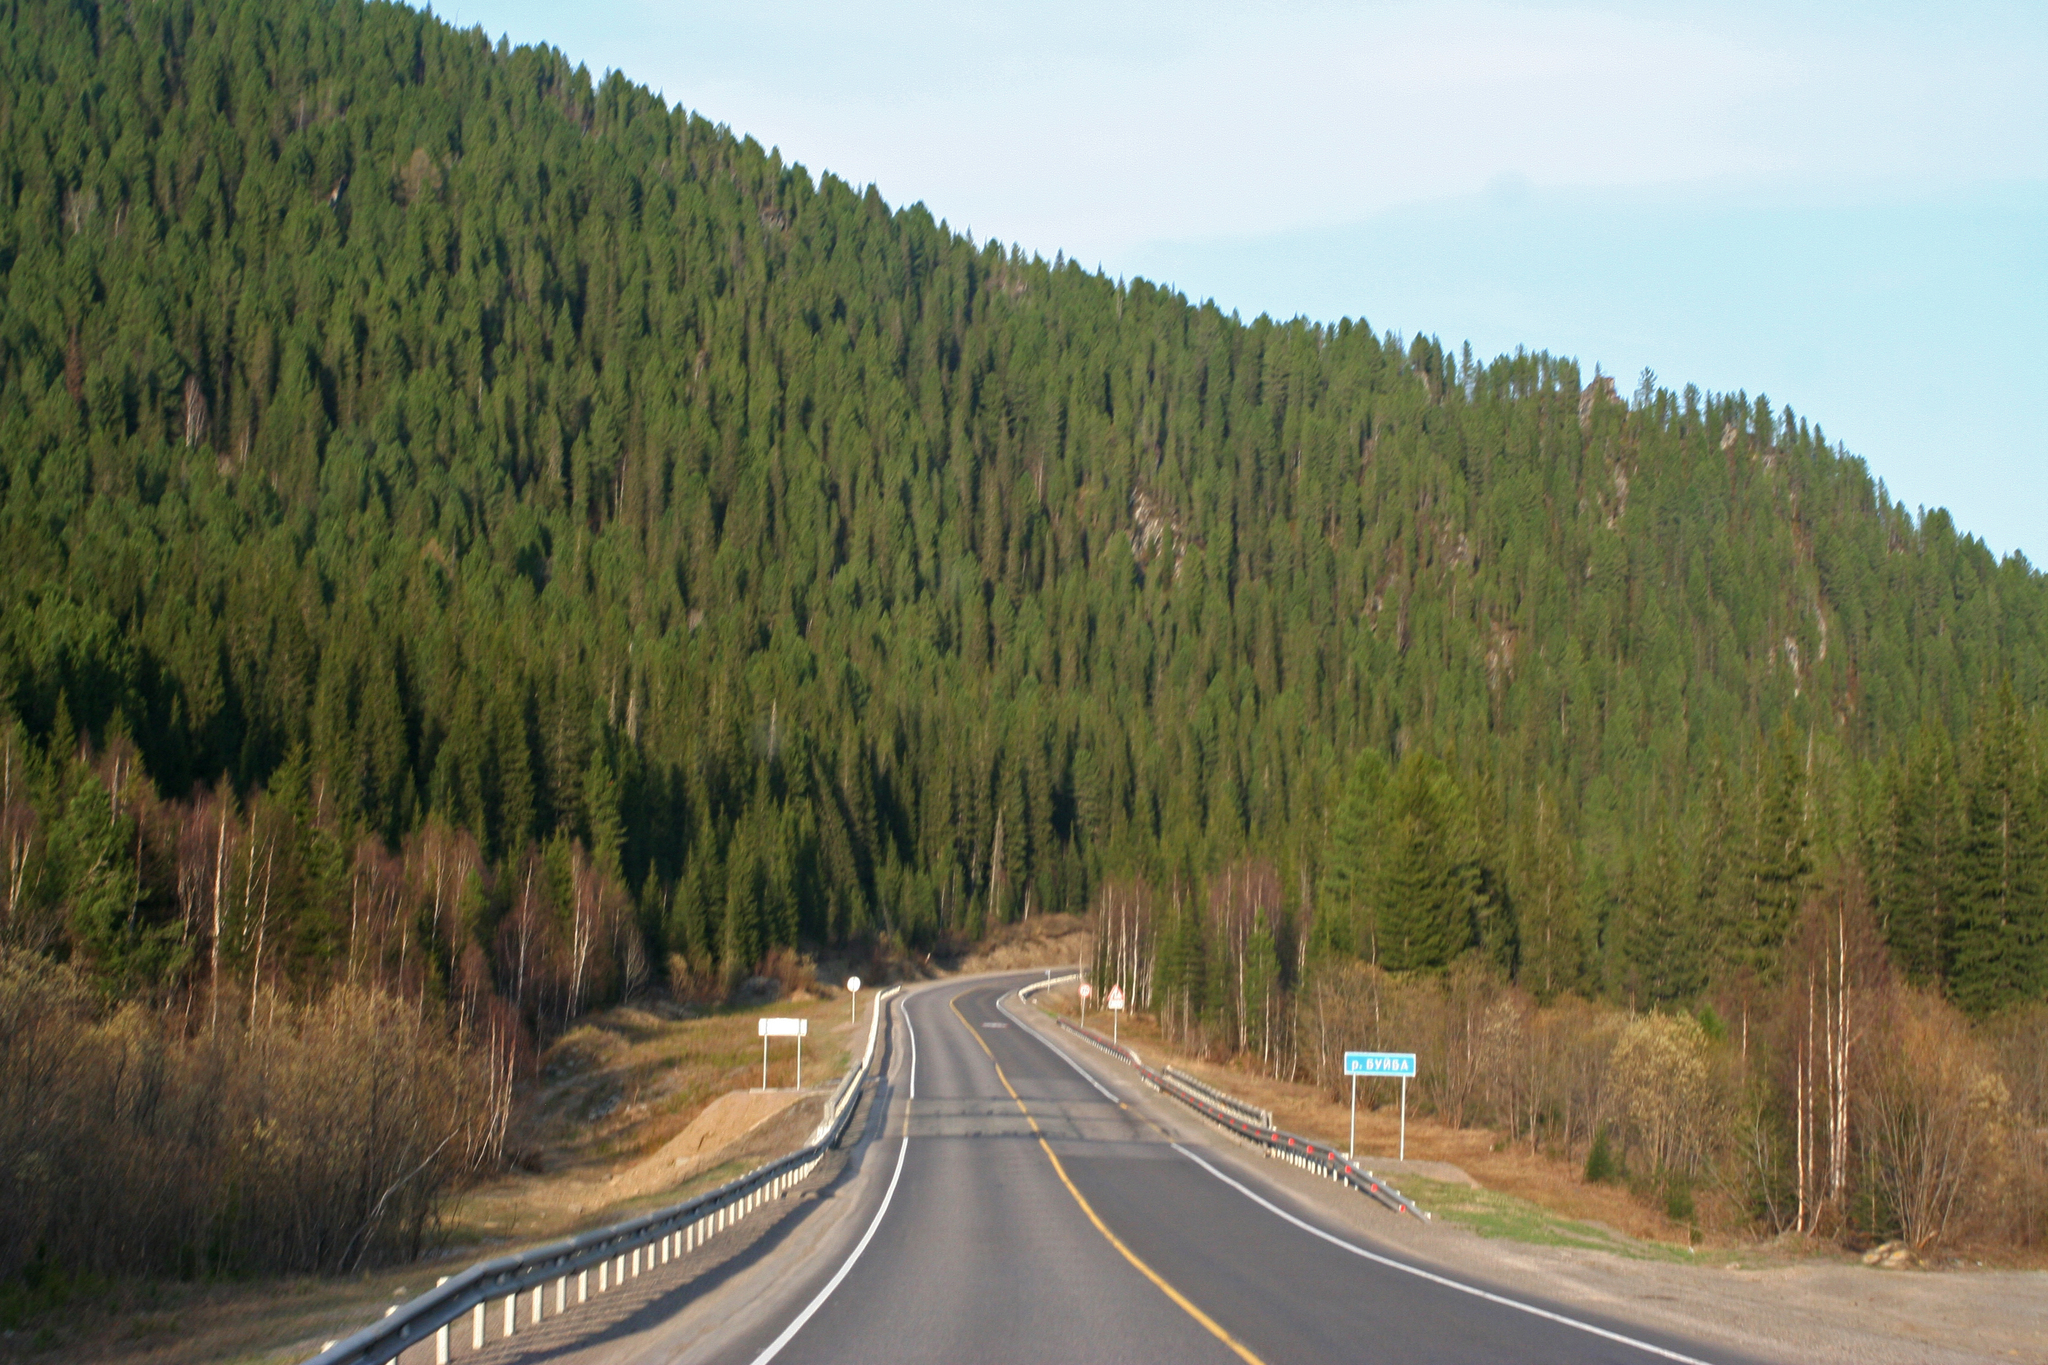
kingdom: Plantae
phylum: Tracheophyta
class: Pinopsida
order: Pinales
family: Pinaceae
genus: Abies
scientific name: Abies sibirica
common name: Siberian fir
